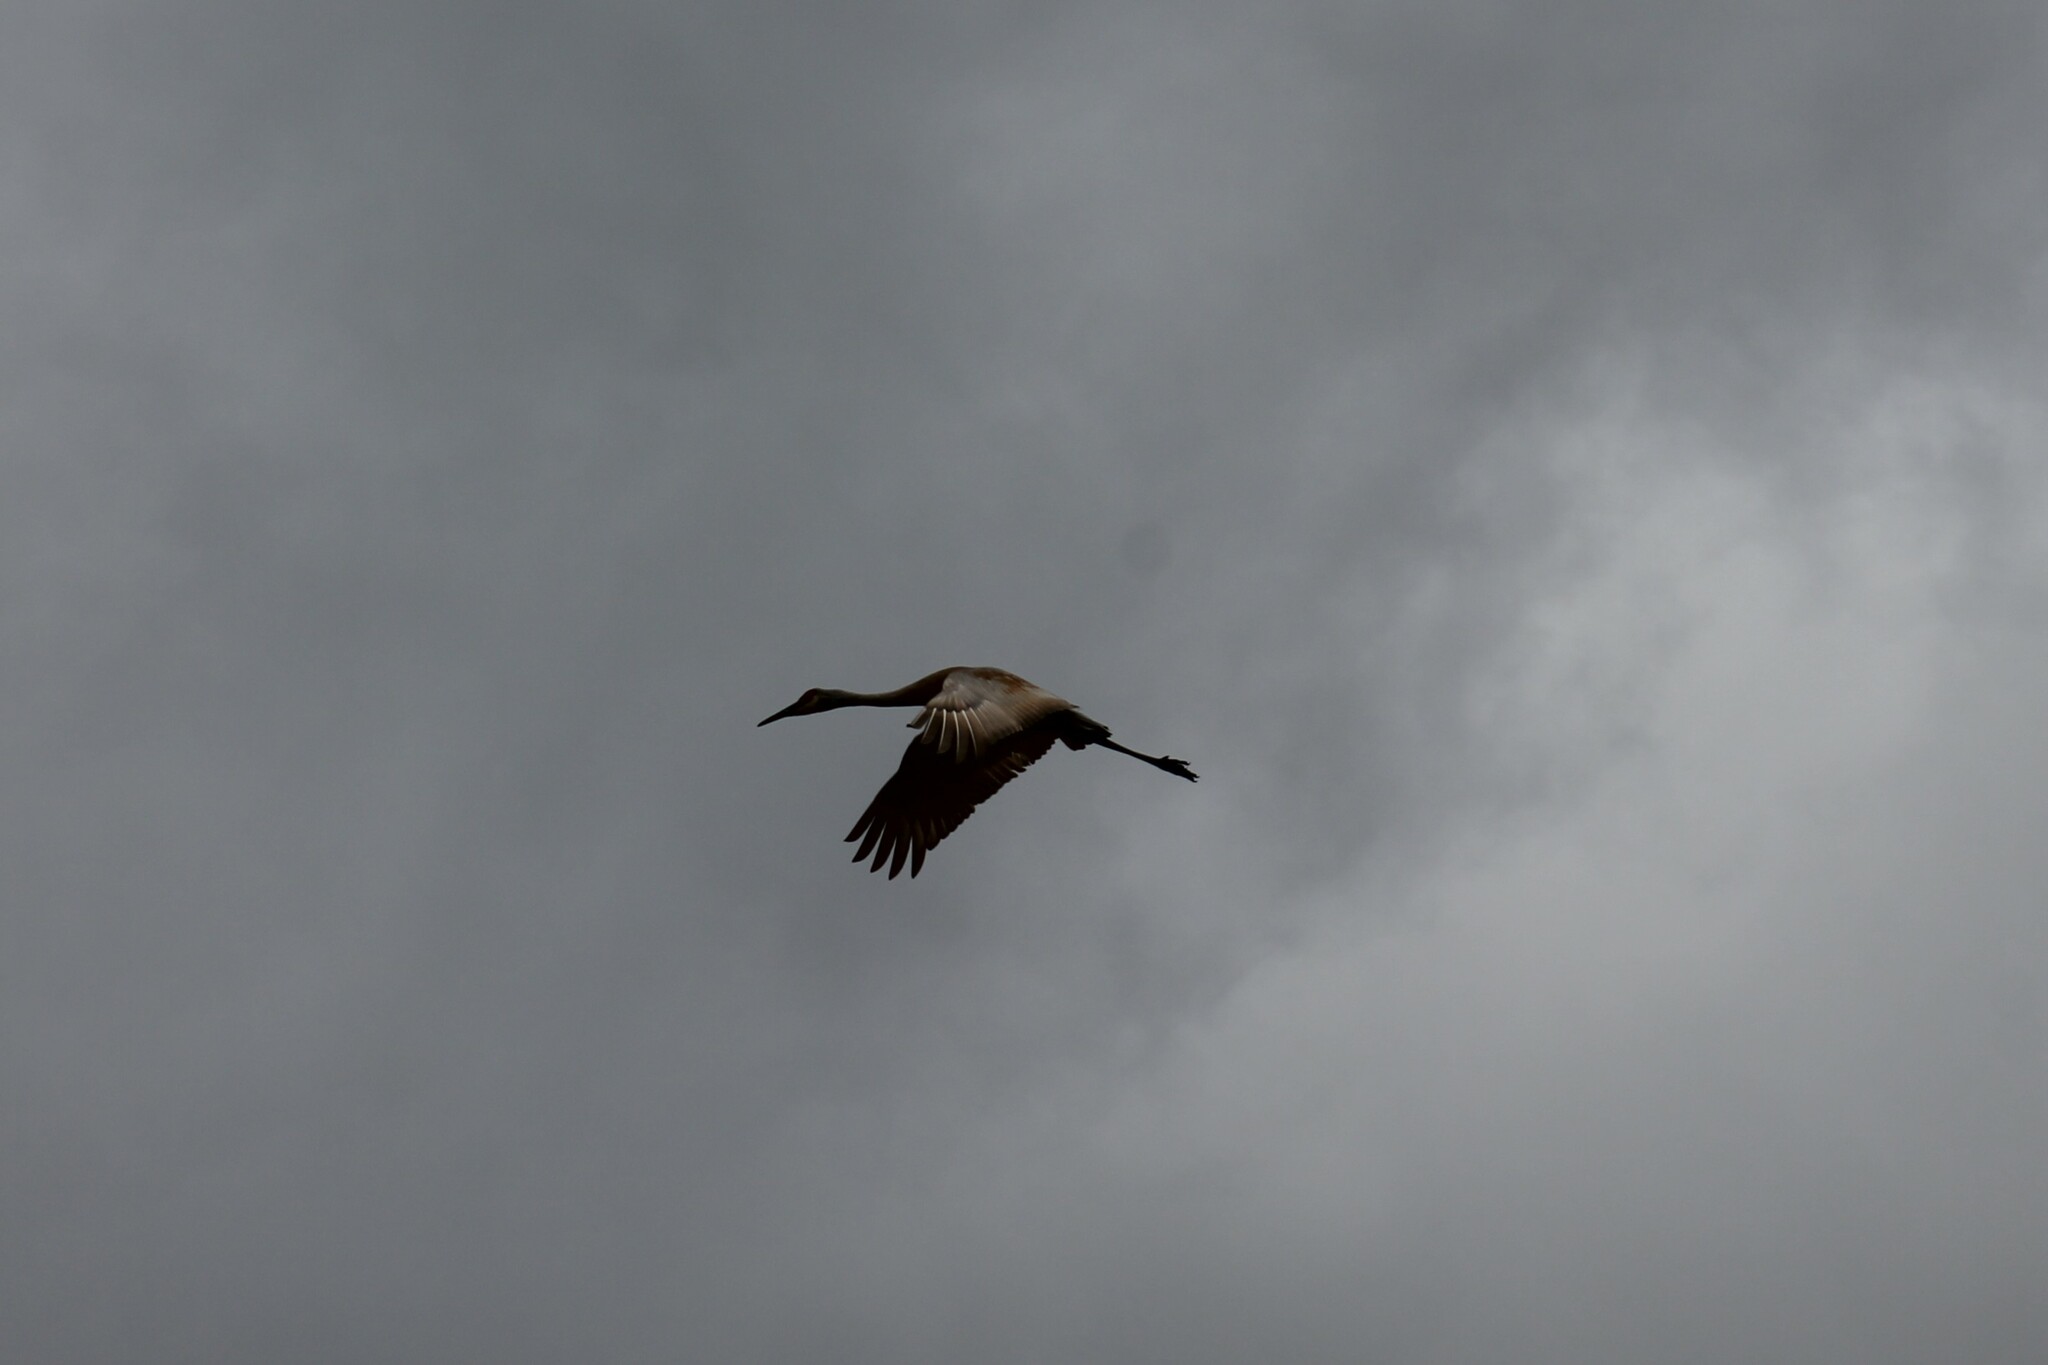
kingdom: Animalia
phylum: Chordata
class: Aves
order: Gruiformes
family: Gruidae
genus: Grus
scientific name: Grus canadensis
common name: Sandhill crane
